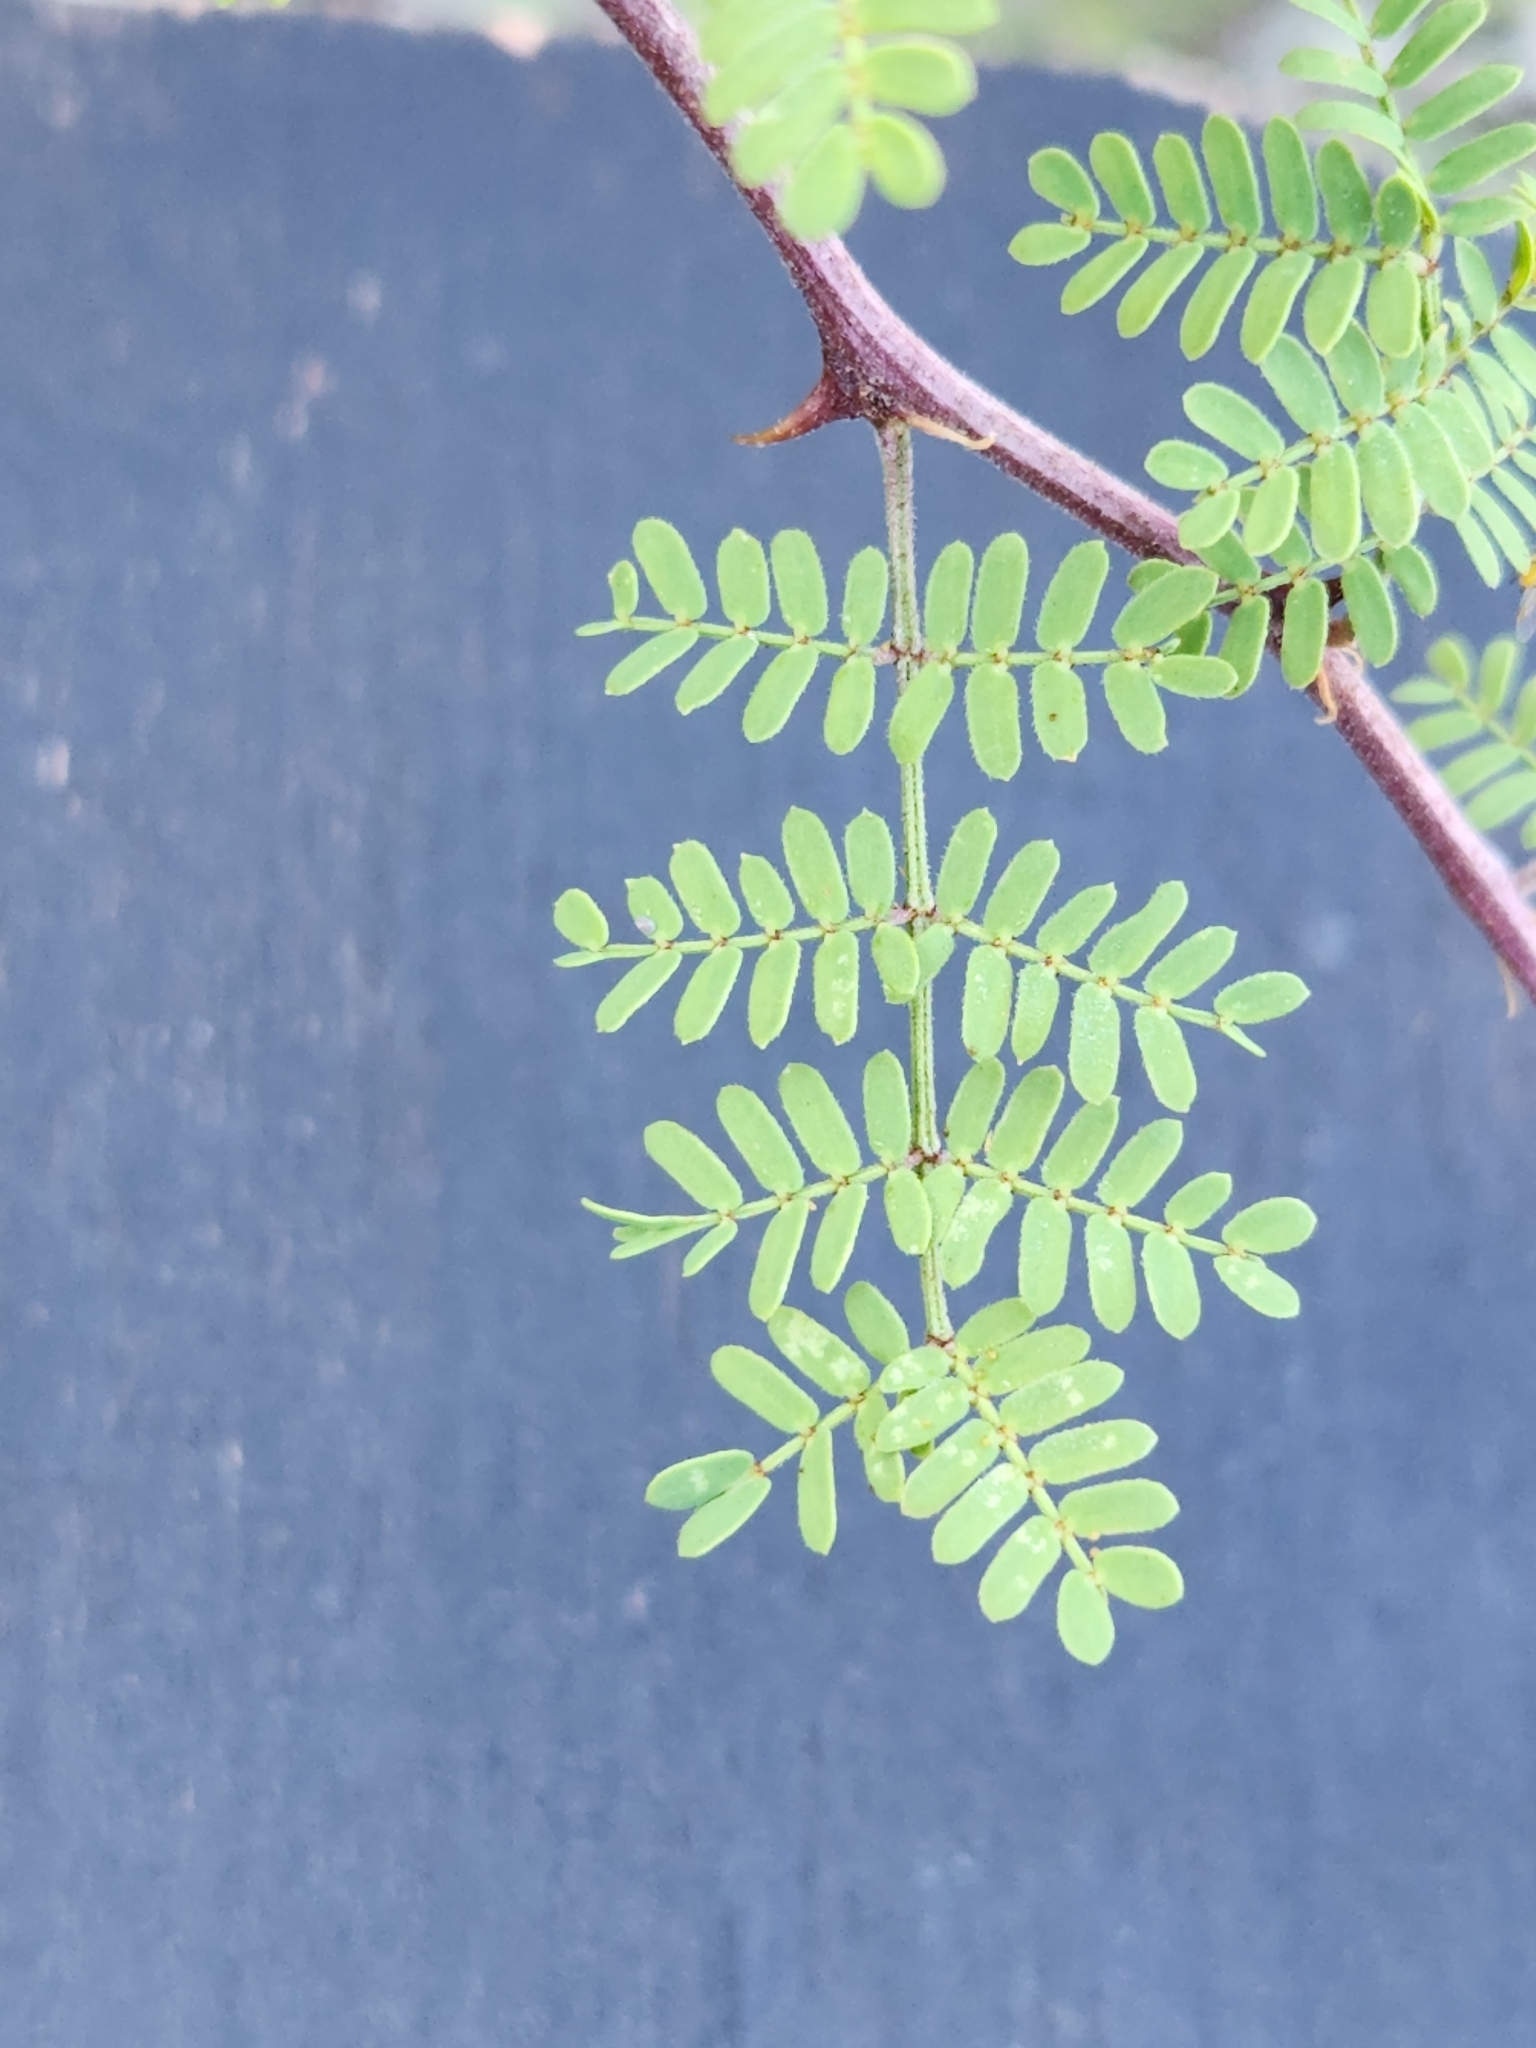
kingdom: Plantae
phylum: Tracheophyta
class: Magnoliopsida
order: Fabales
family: Fabaceae
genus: Mimosa
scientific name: Mimosa texana
